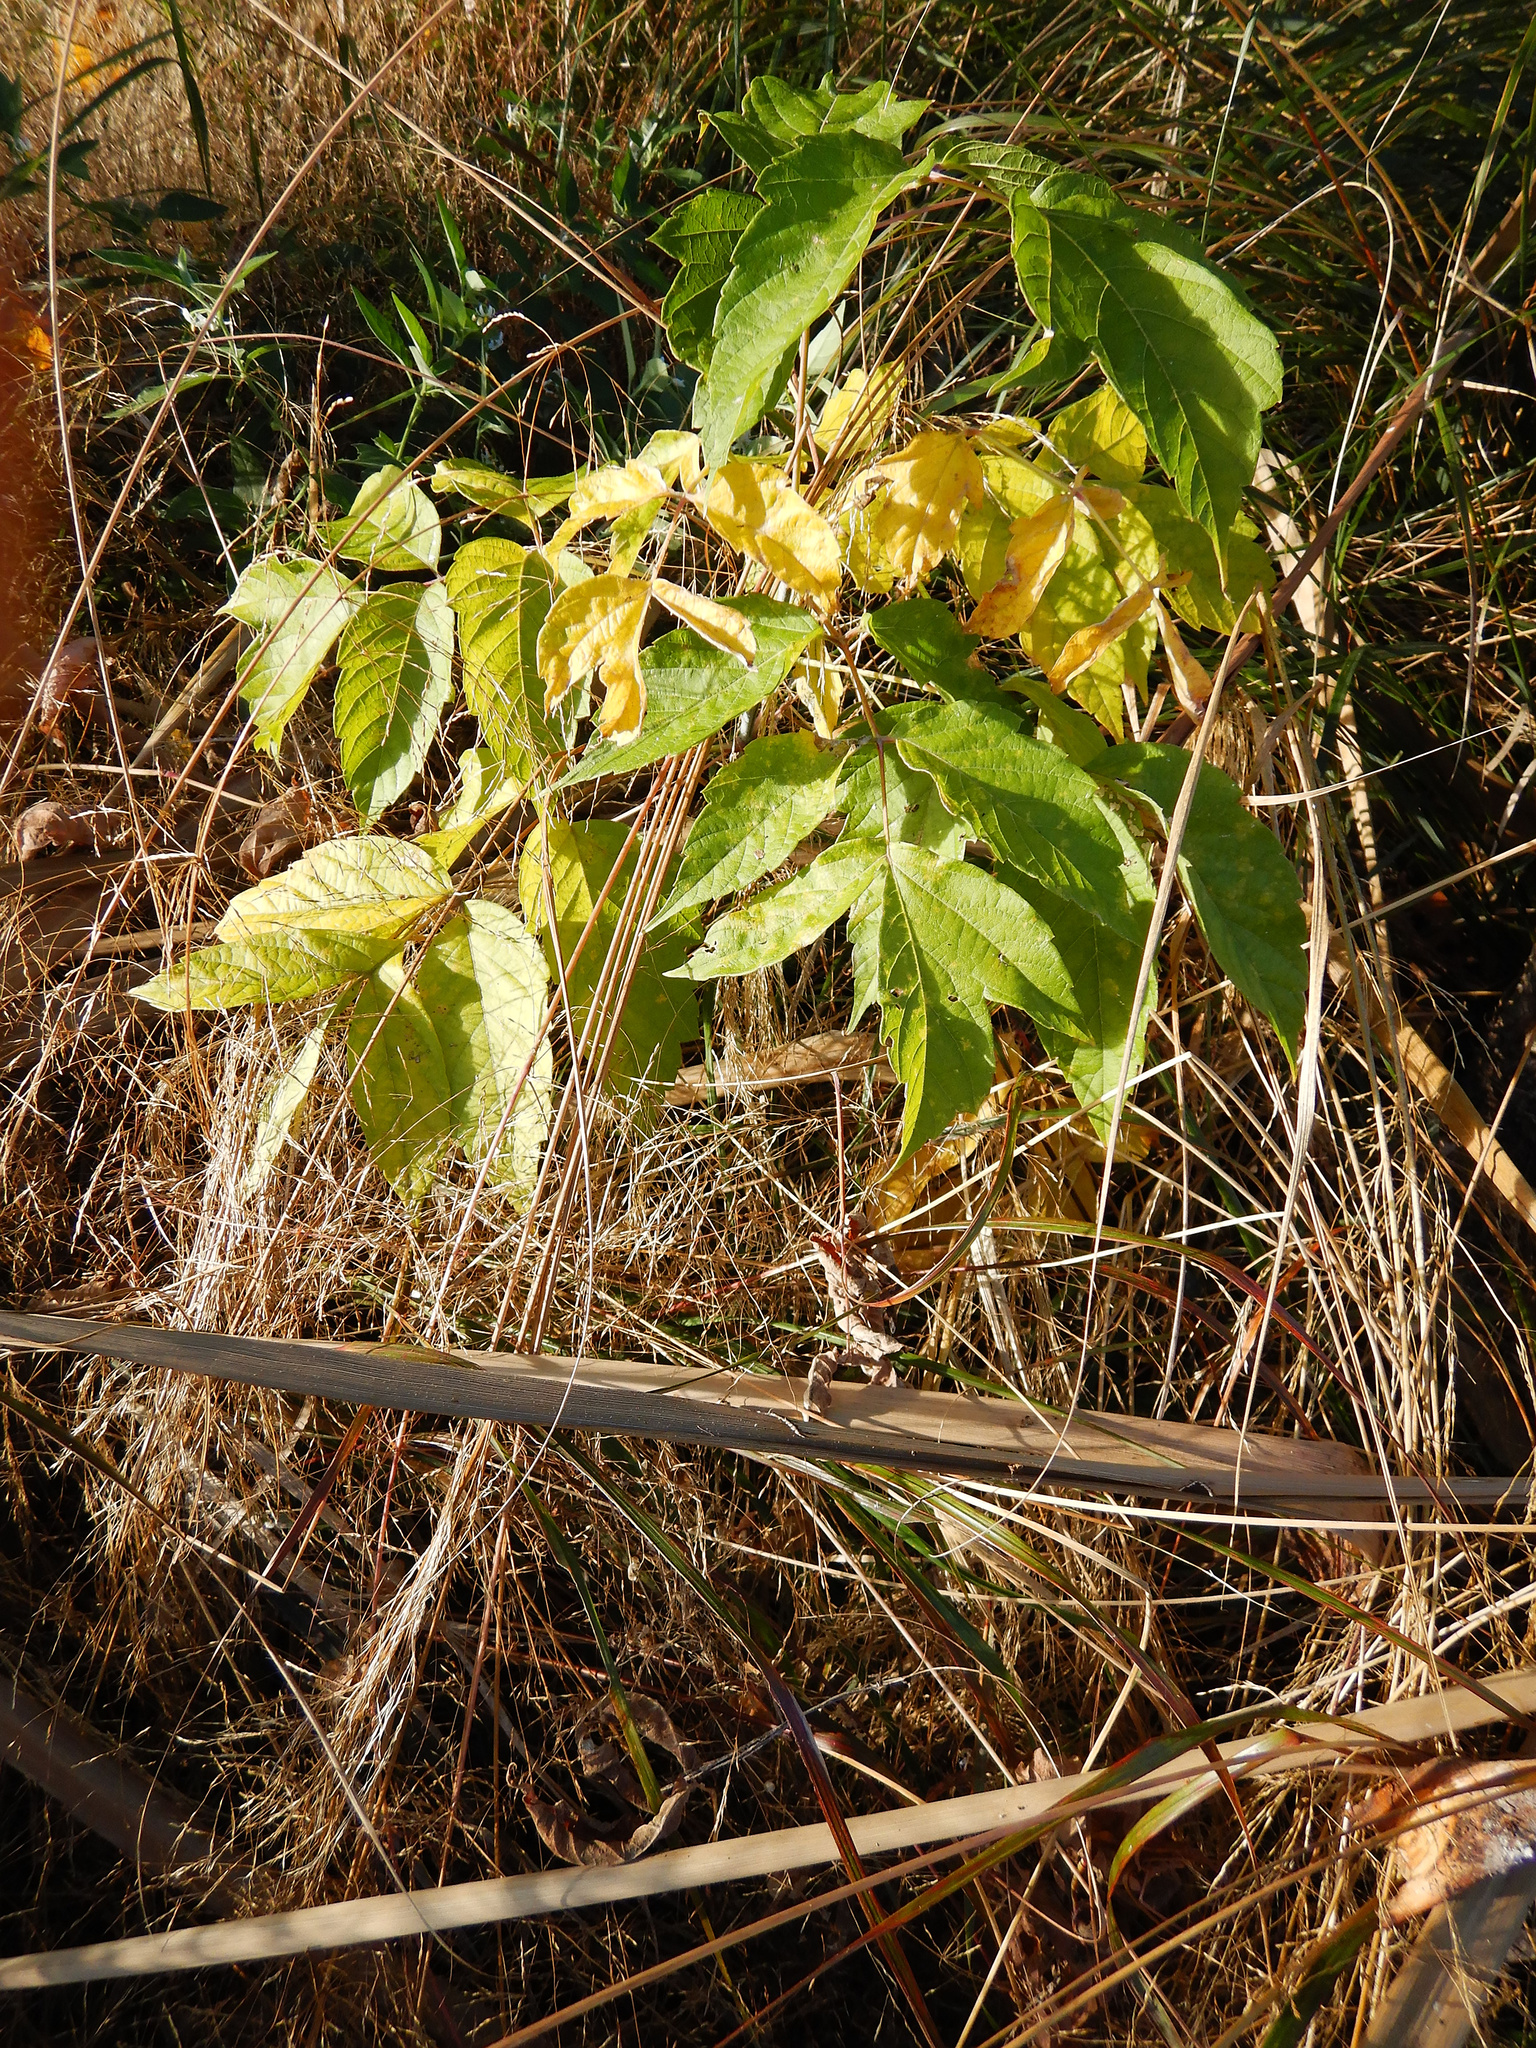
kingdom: Plantae
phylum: Tracheophyta
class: Magnoliopsida
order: Sapindales
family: Sapindaceae
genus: Acer
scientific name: Acer negundo
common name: Ashleaf maple
